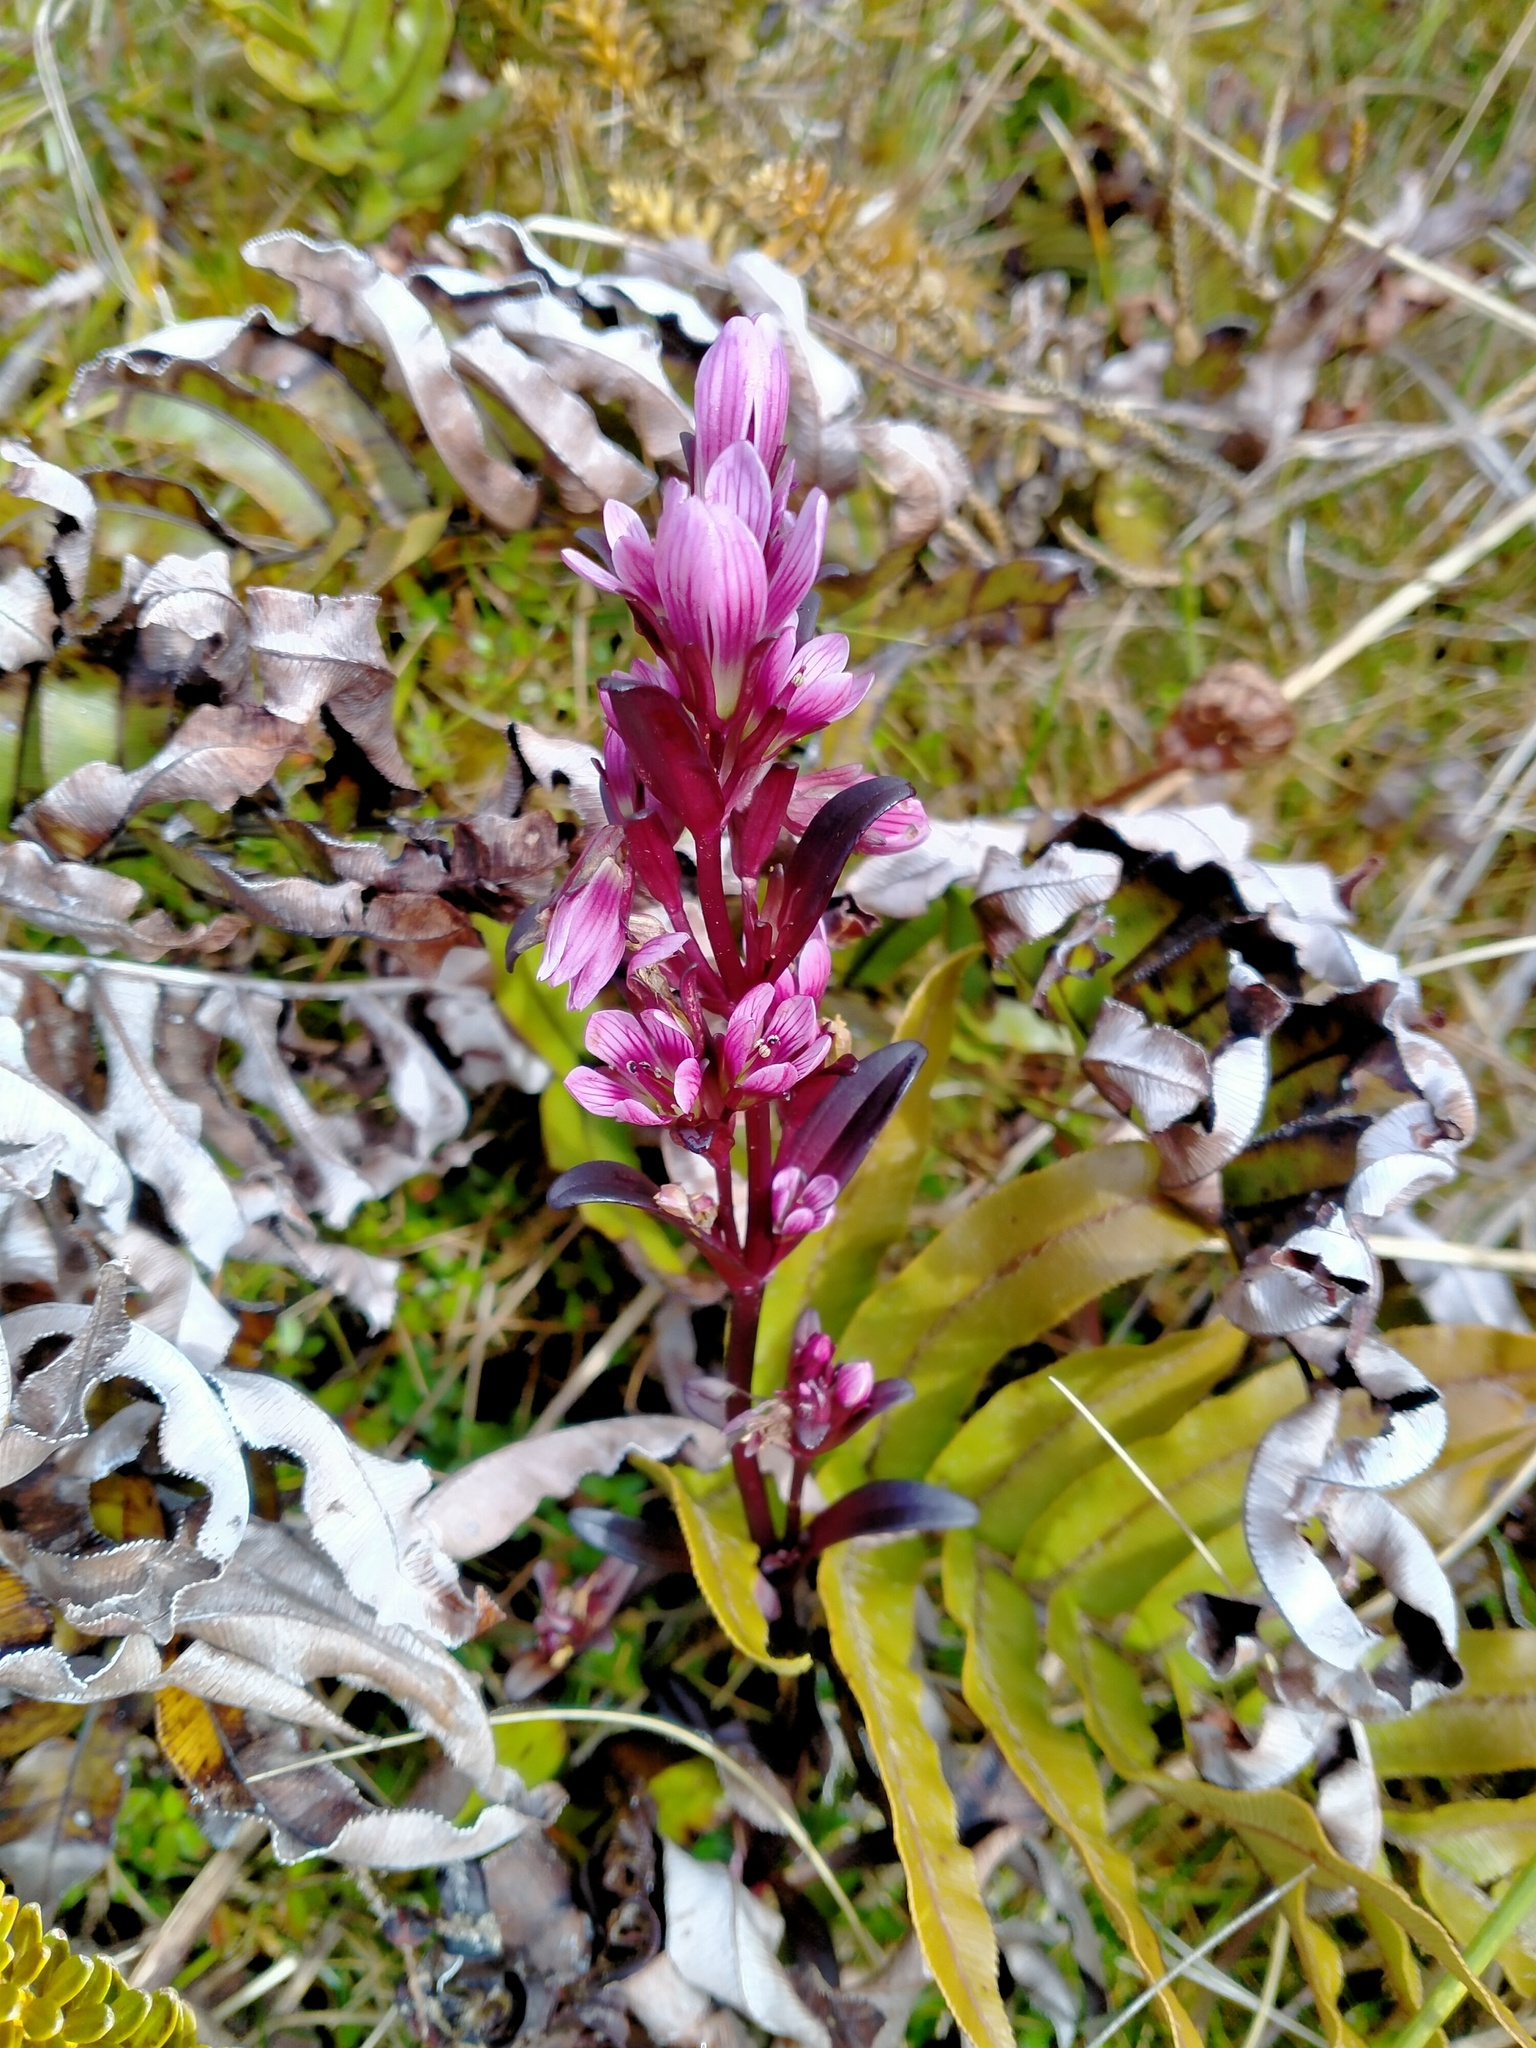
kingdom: Plantae
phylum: Tracheophyta
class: Magnoliopsida
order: Gentianales
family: Gentianaceae
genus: Gentianella
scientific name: Gentianella concinna
